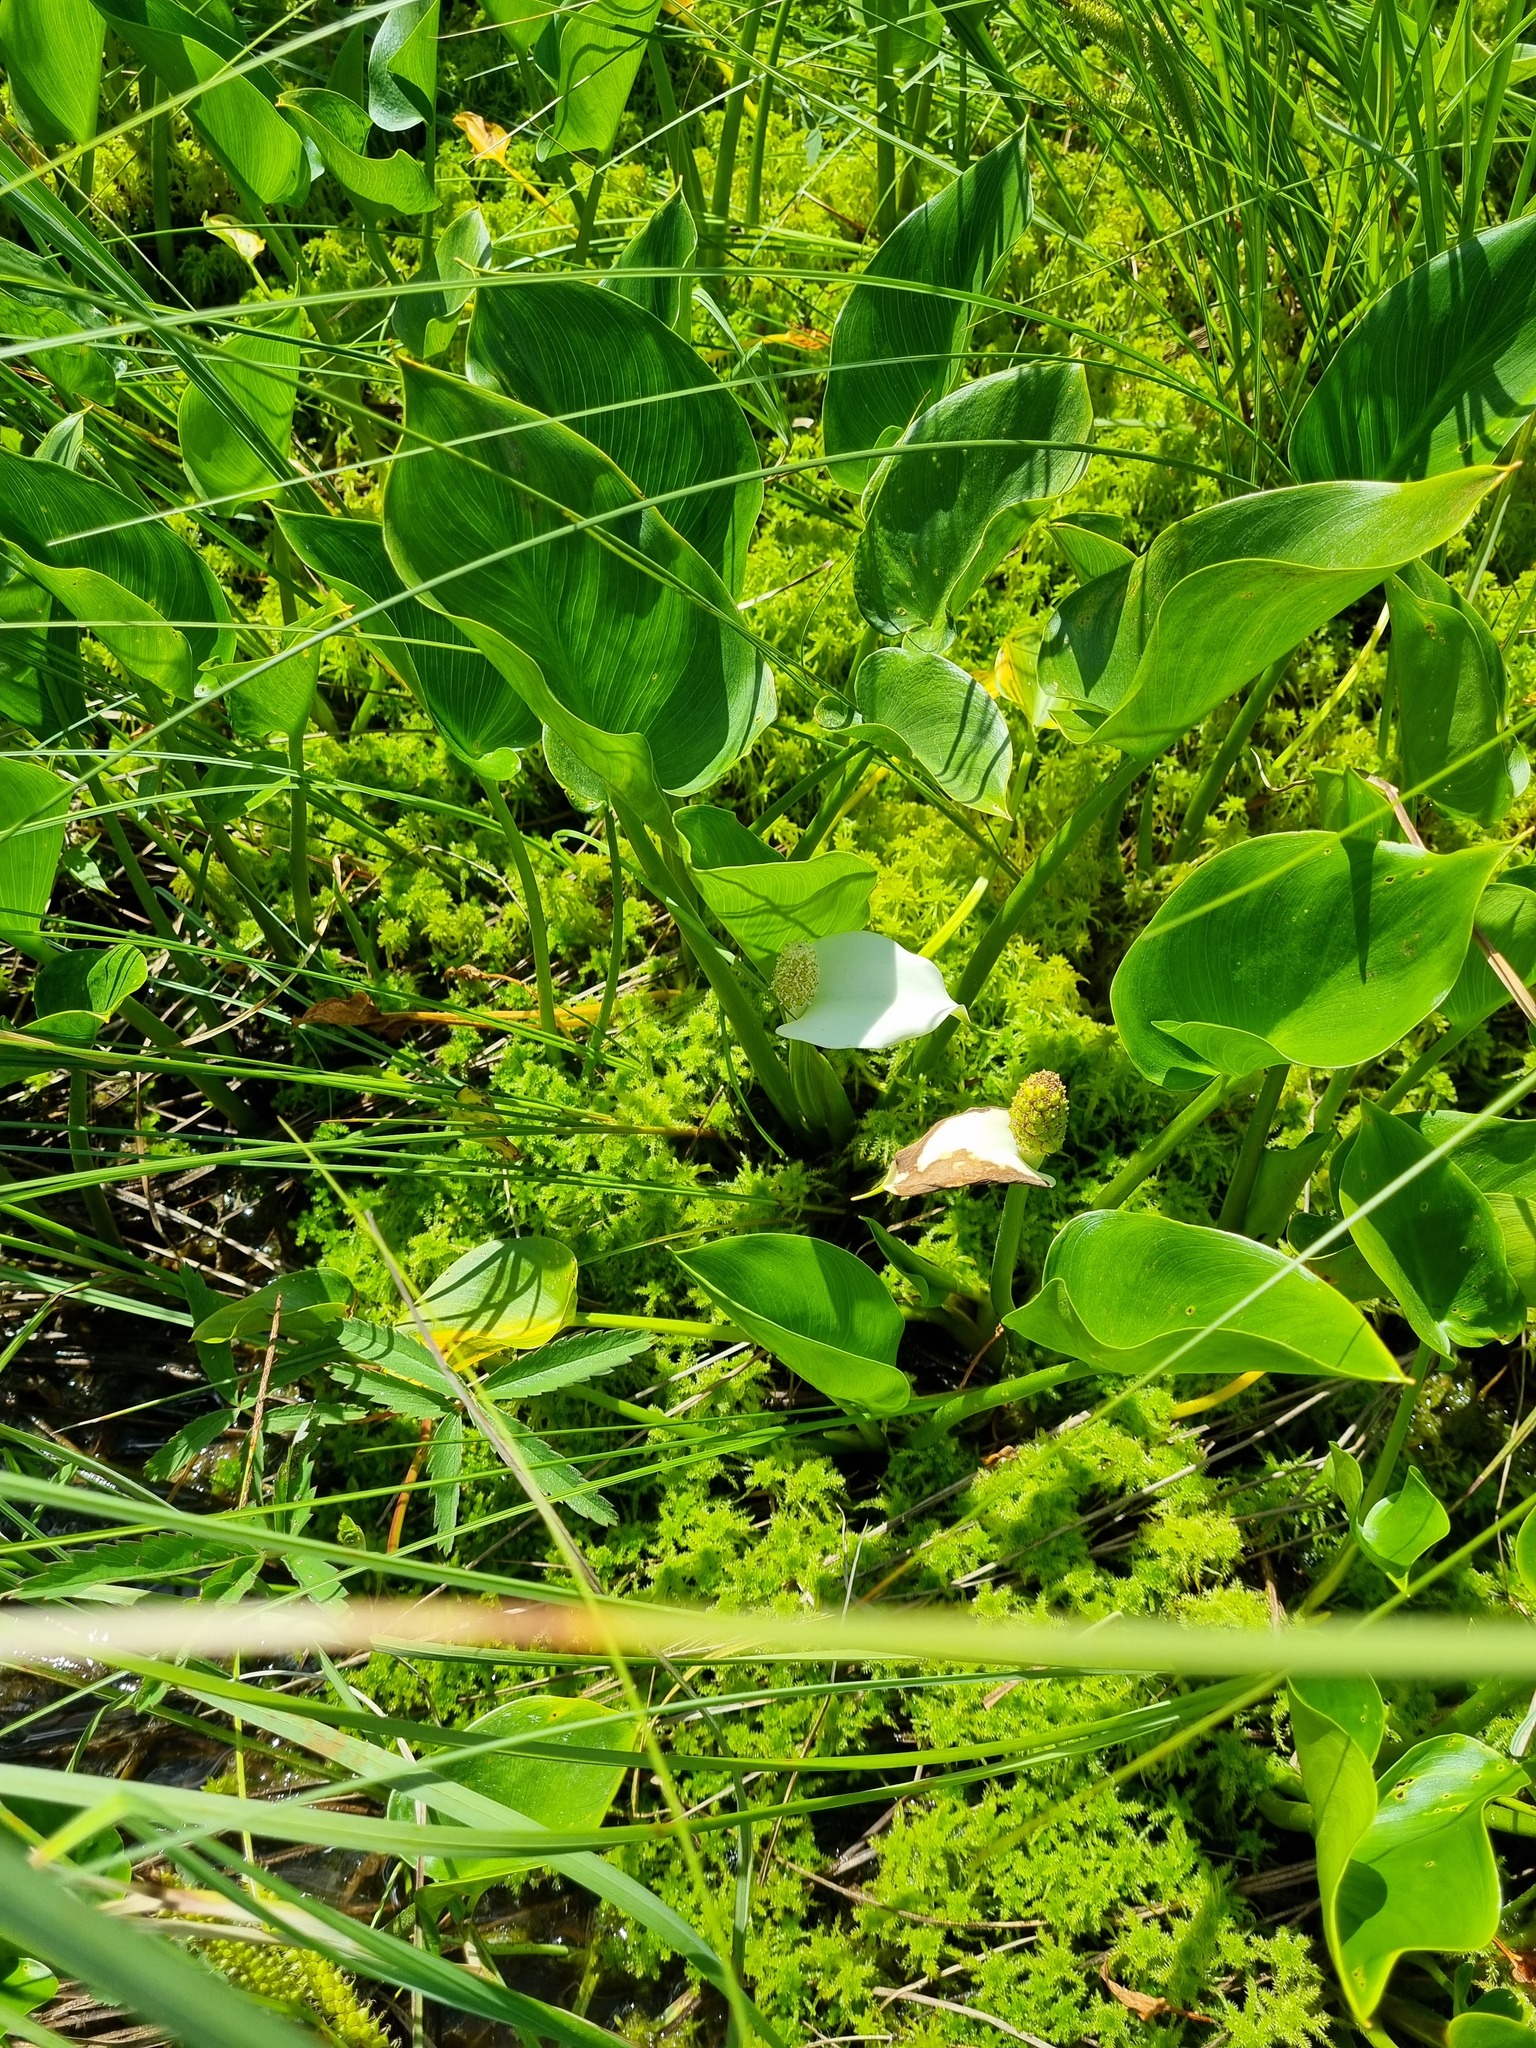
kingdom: Plantae
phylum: Tracheophyta
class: Liliopsida
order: Alismatales
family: Araceae
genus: Calla
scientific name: Calla palustris
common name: Bog arum
